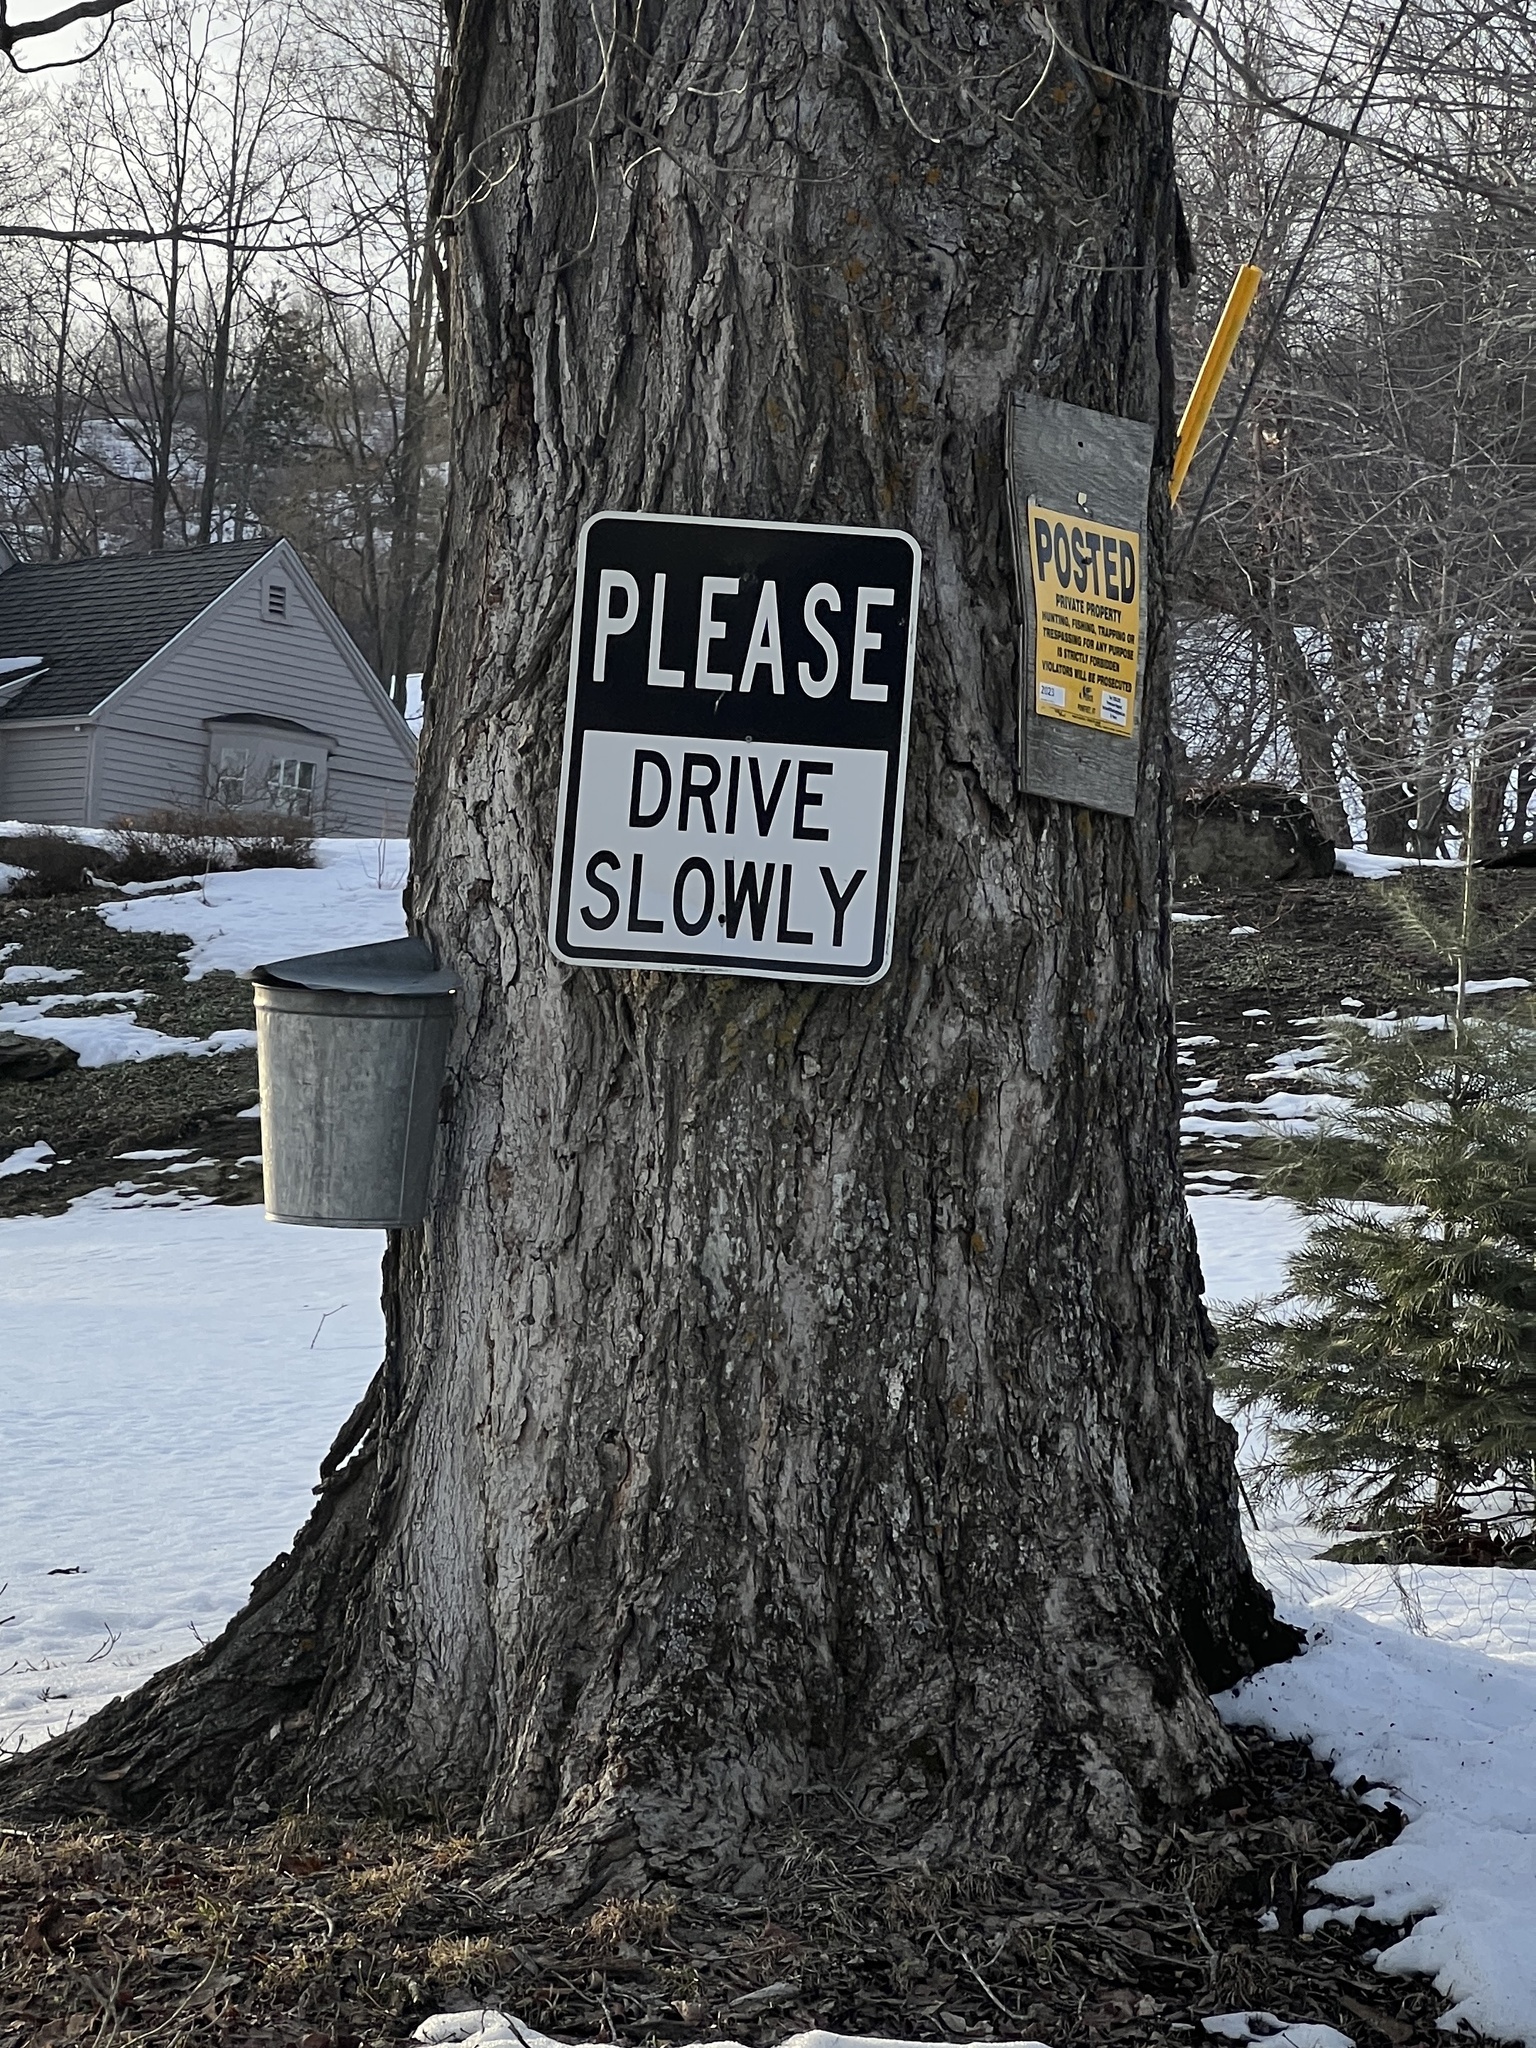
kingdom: Plantae
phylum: Tracheophyta
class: Magnoliopsida
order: Sapindales
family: Sapindaceae
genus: Acer
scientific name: Acer saccharum
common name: Sugar maple
